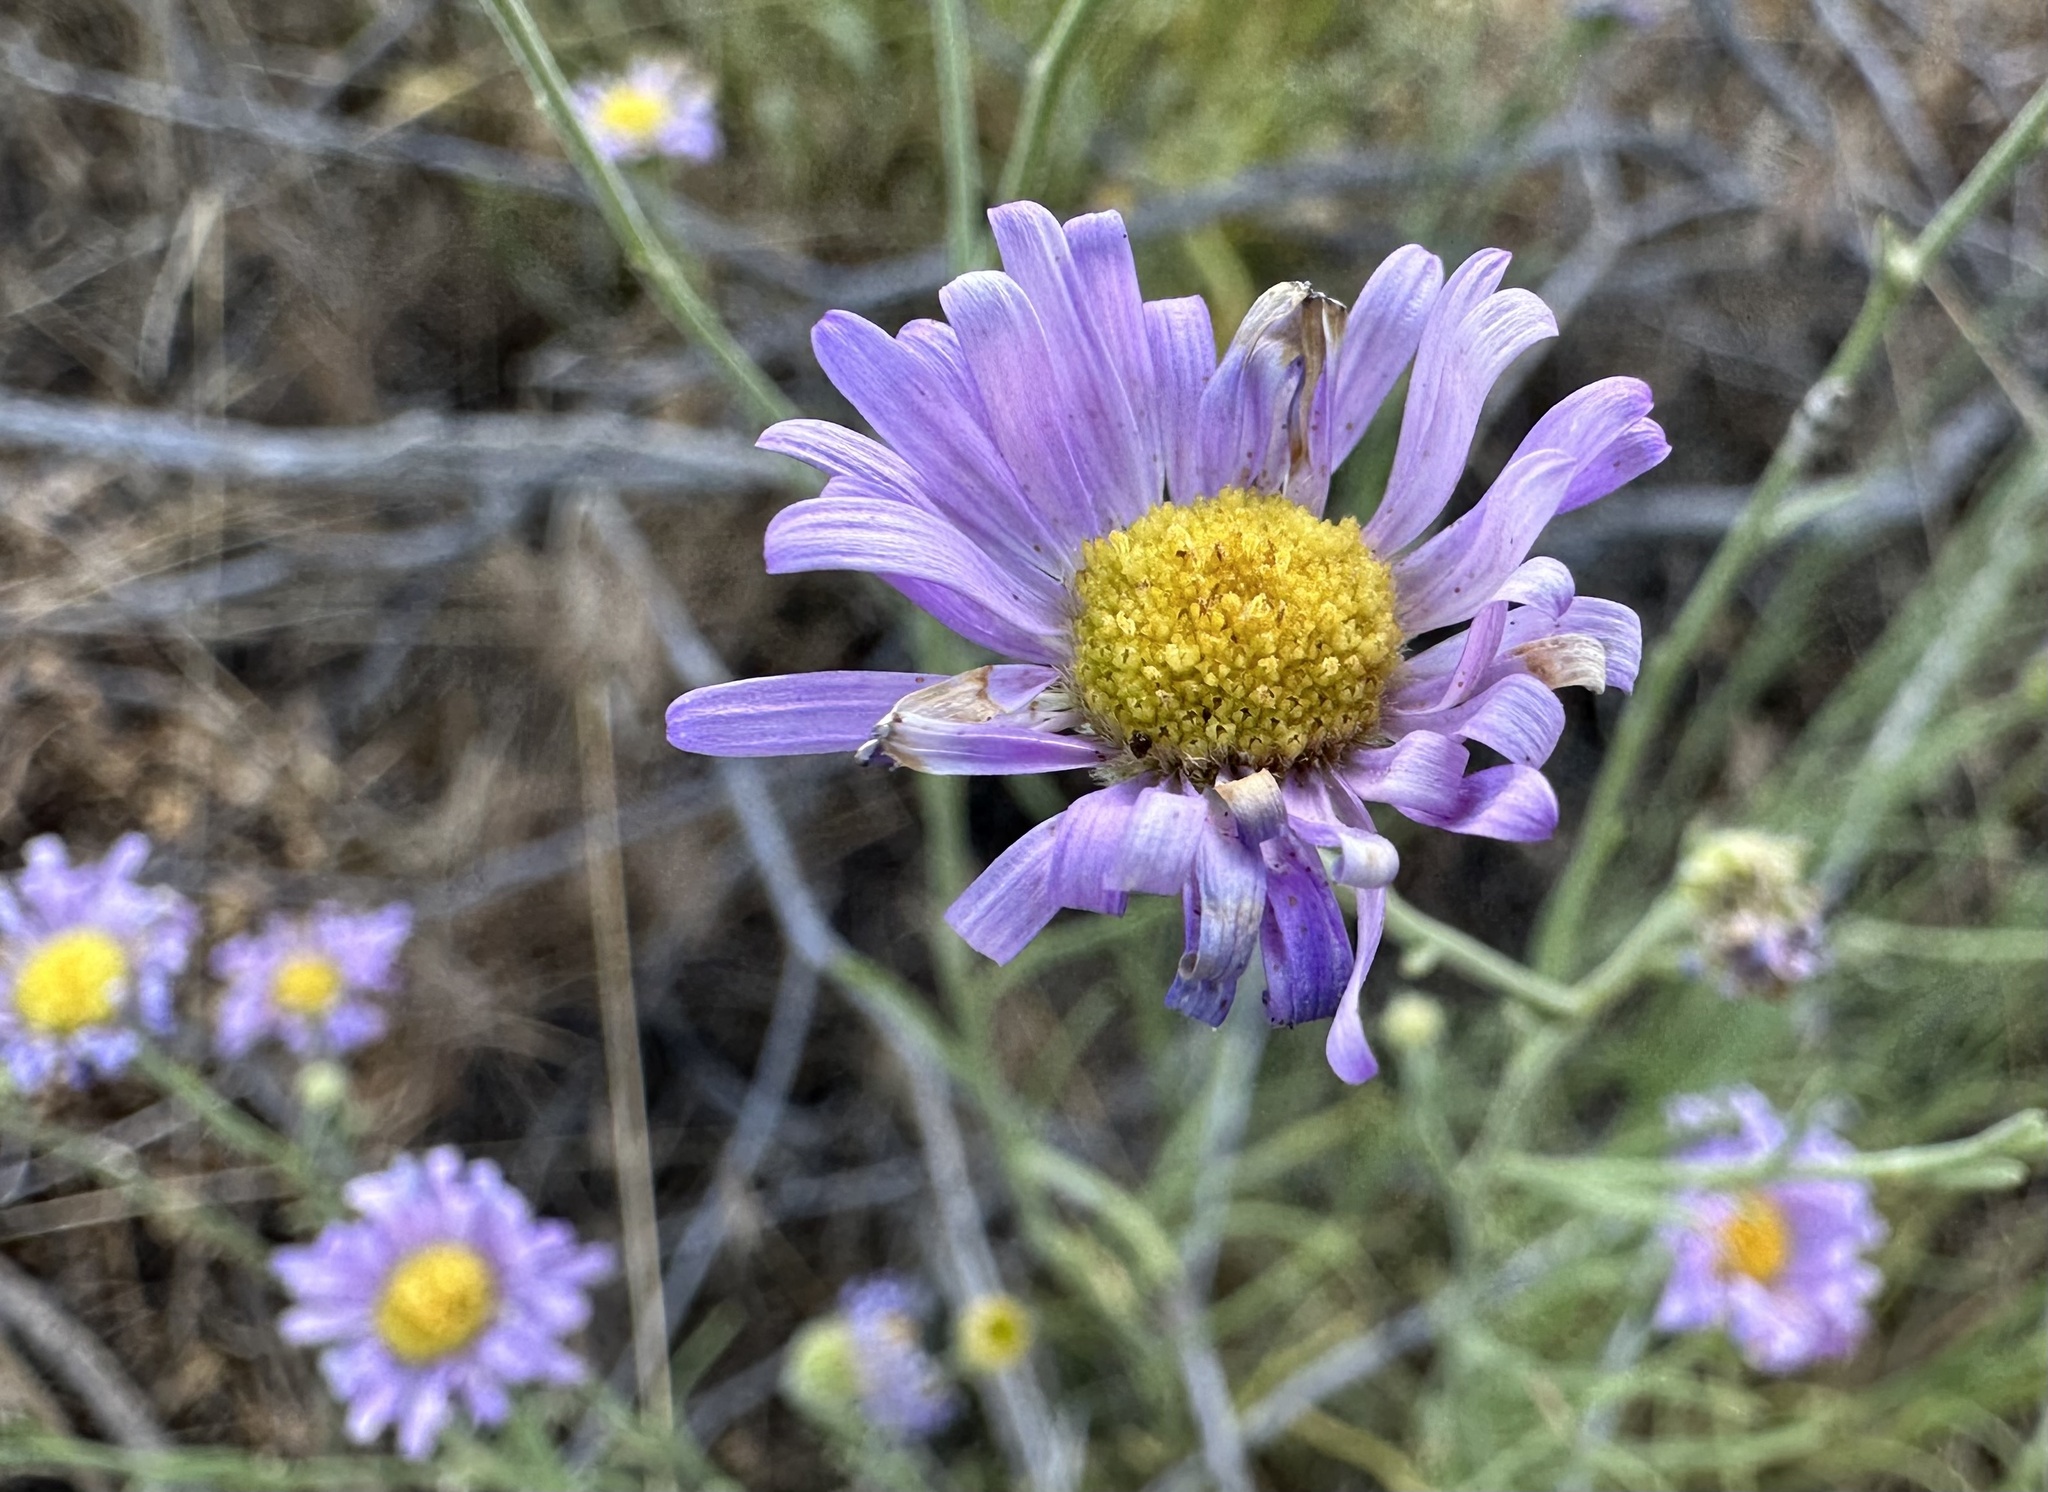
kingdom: Plantae
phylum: Tracheophyta
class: Magnoliopsida
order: Asterales
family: Asteraceae
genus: Erigeron
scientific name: Erigeron filifolius
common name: Threadleaf fleabane
